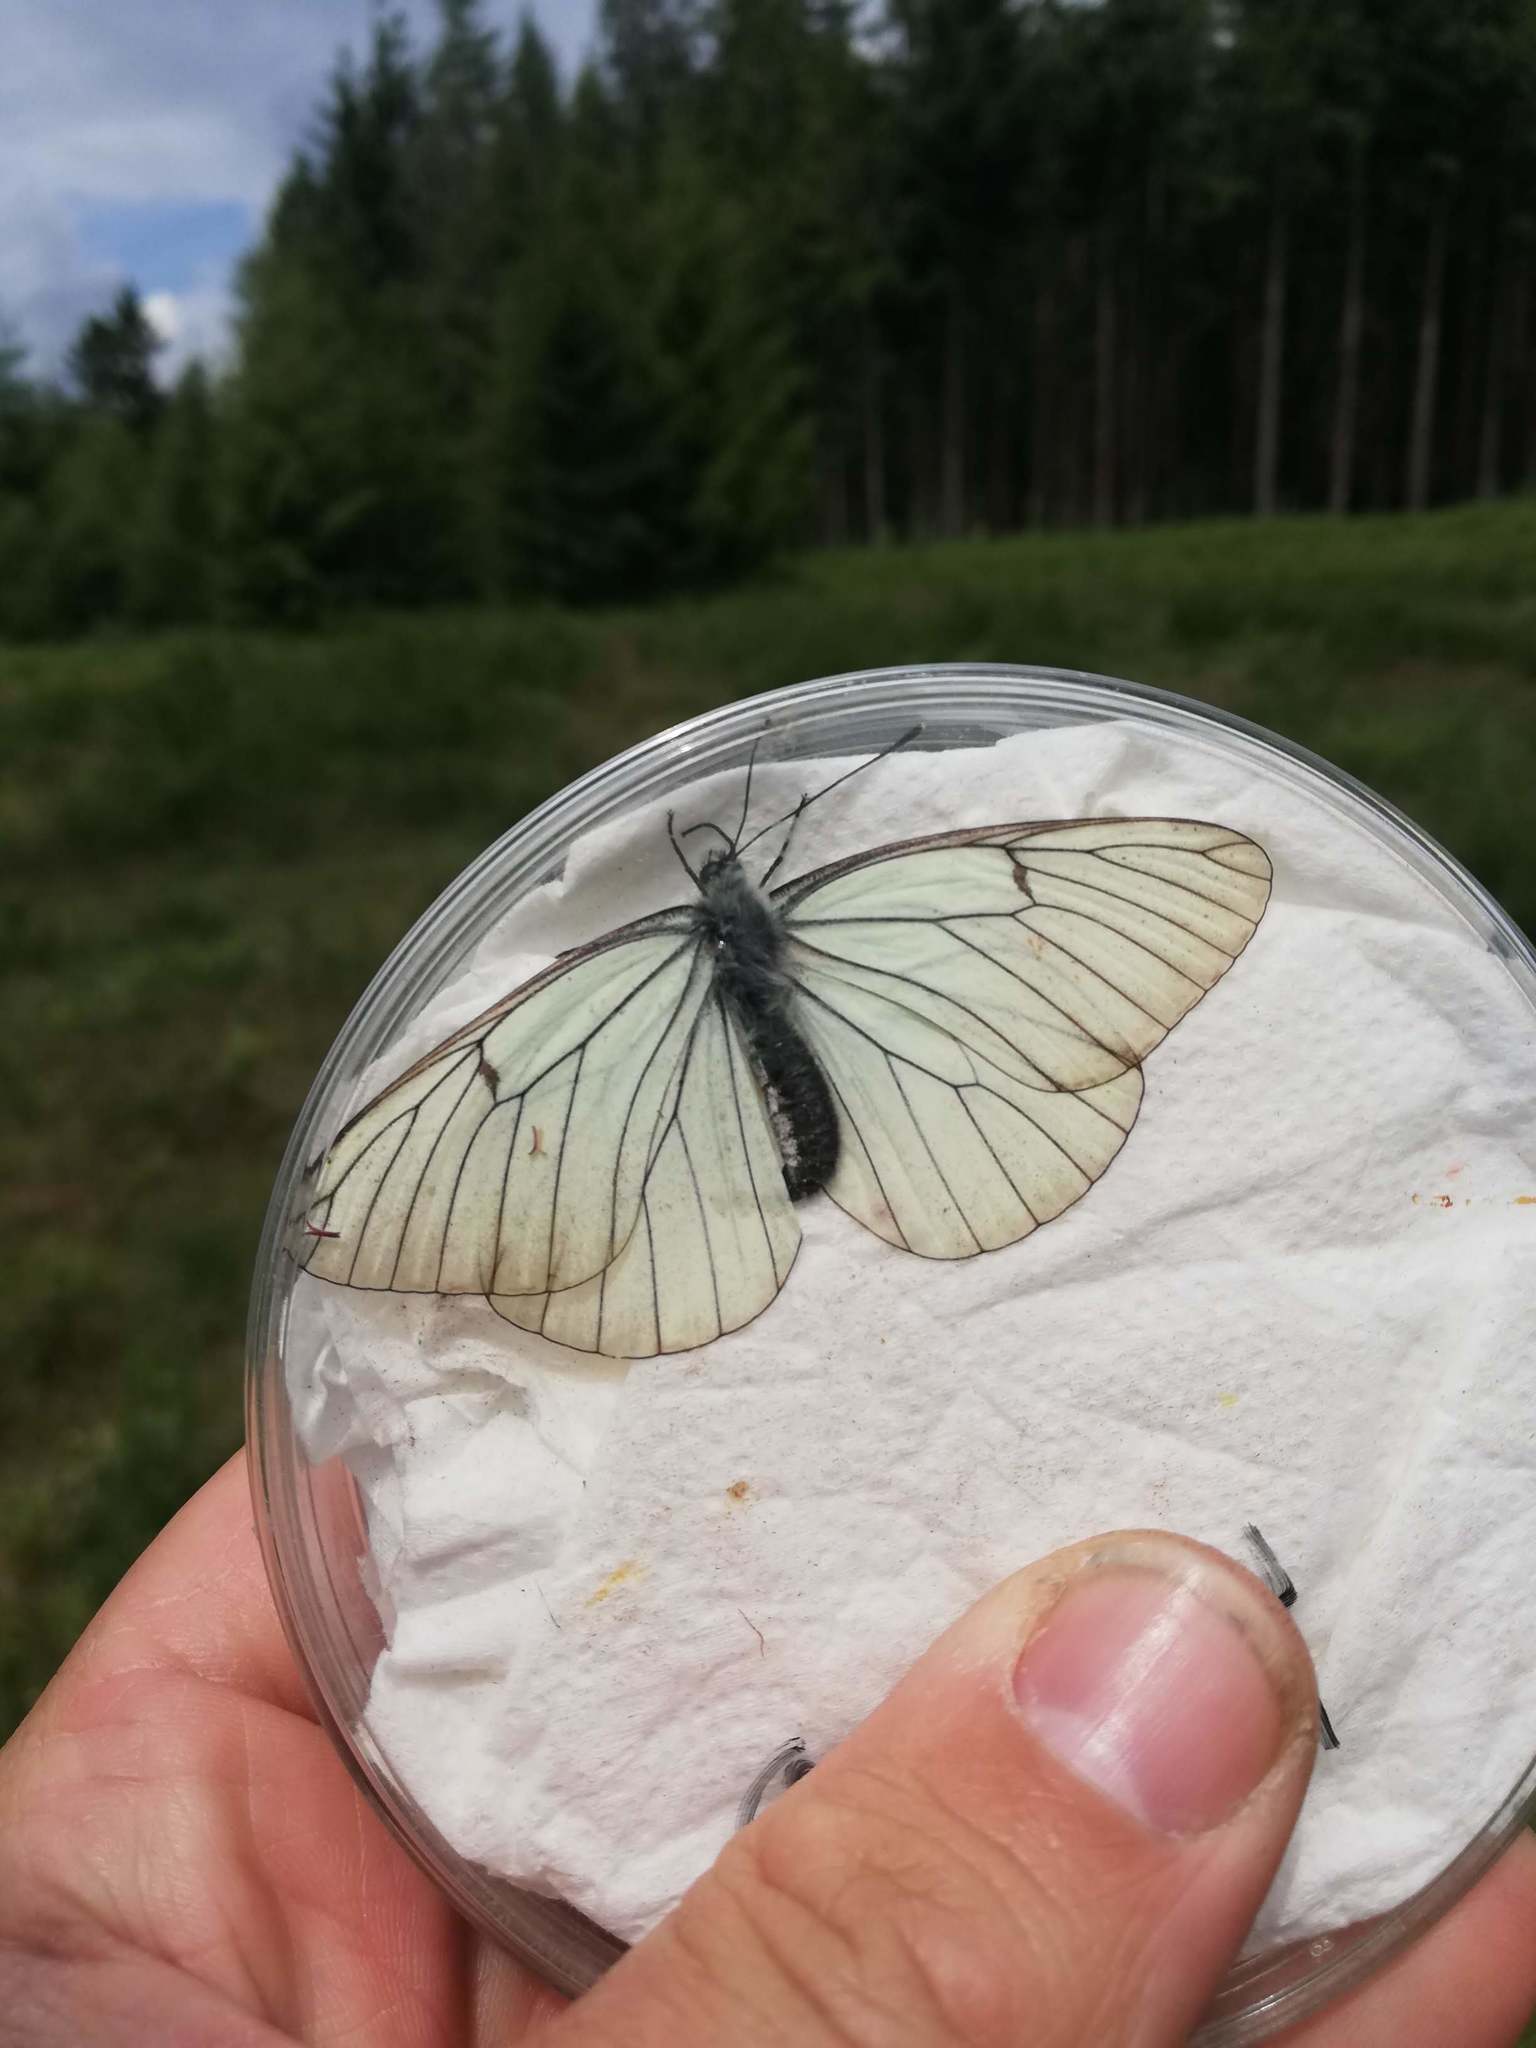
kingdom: Animalia
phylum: Arthropoda
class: Insecta
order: Lepidoptera
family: Pieridae
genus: Aporia
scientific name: Aporia crataegi
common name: Black-veined white
